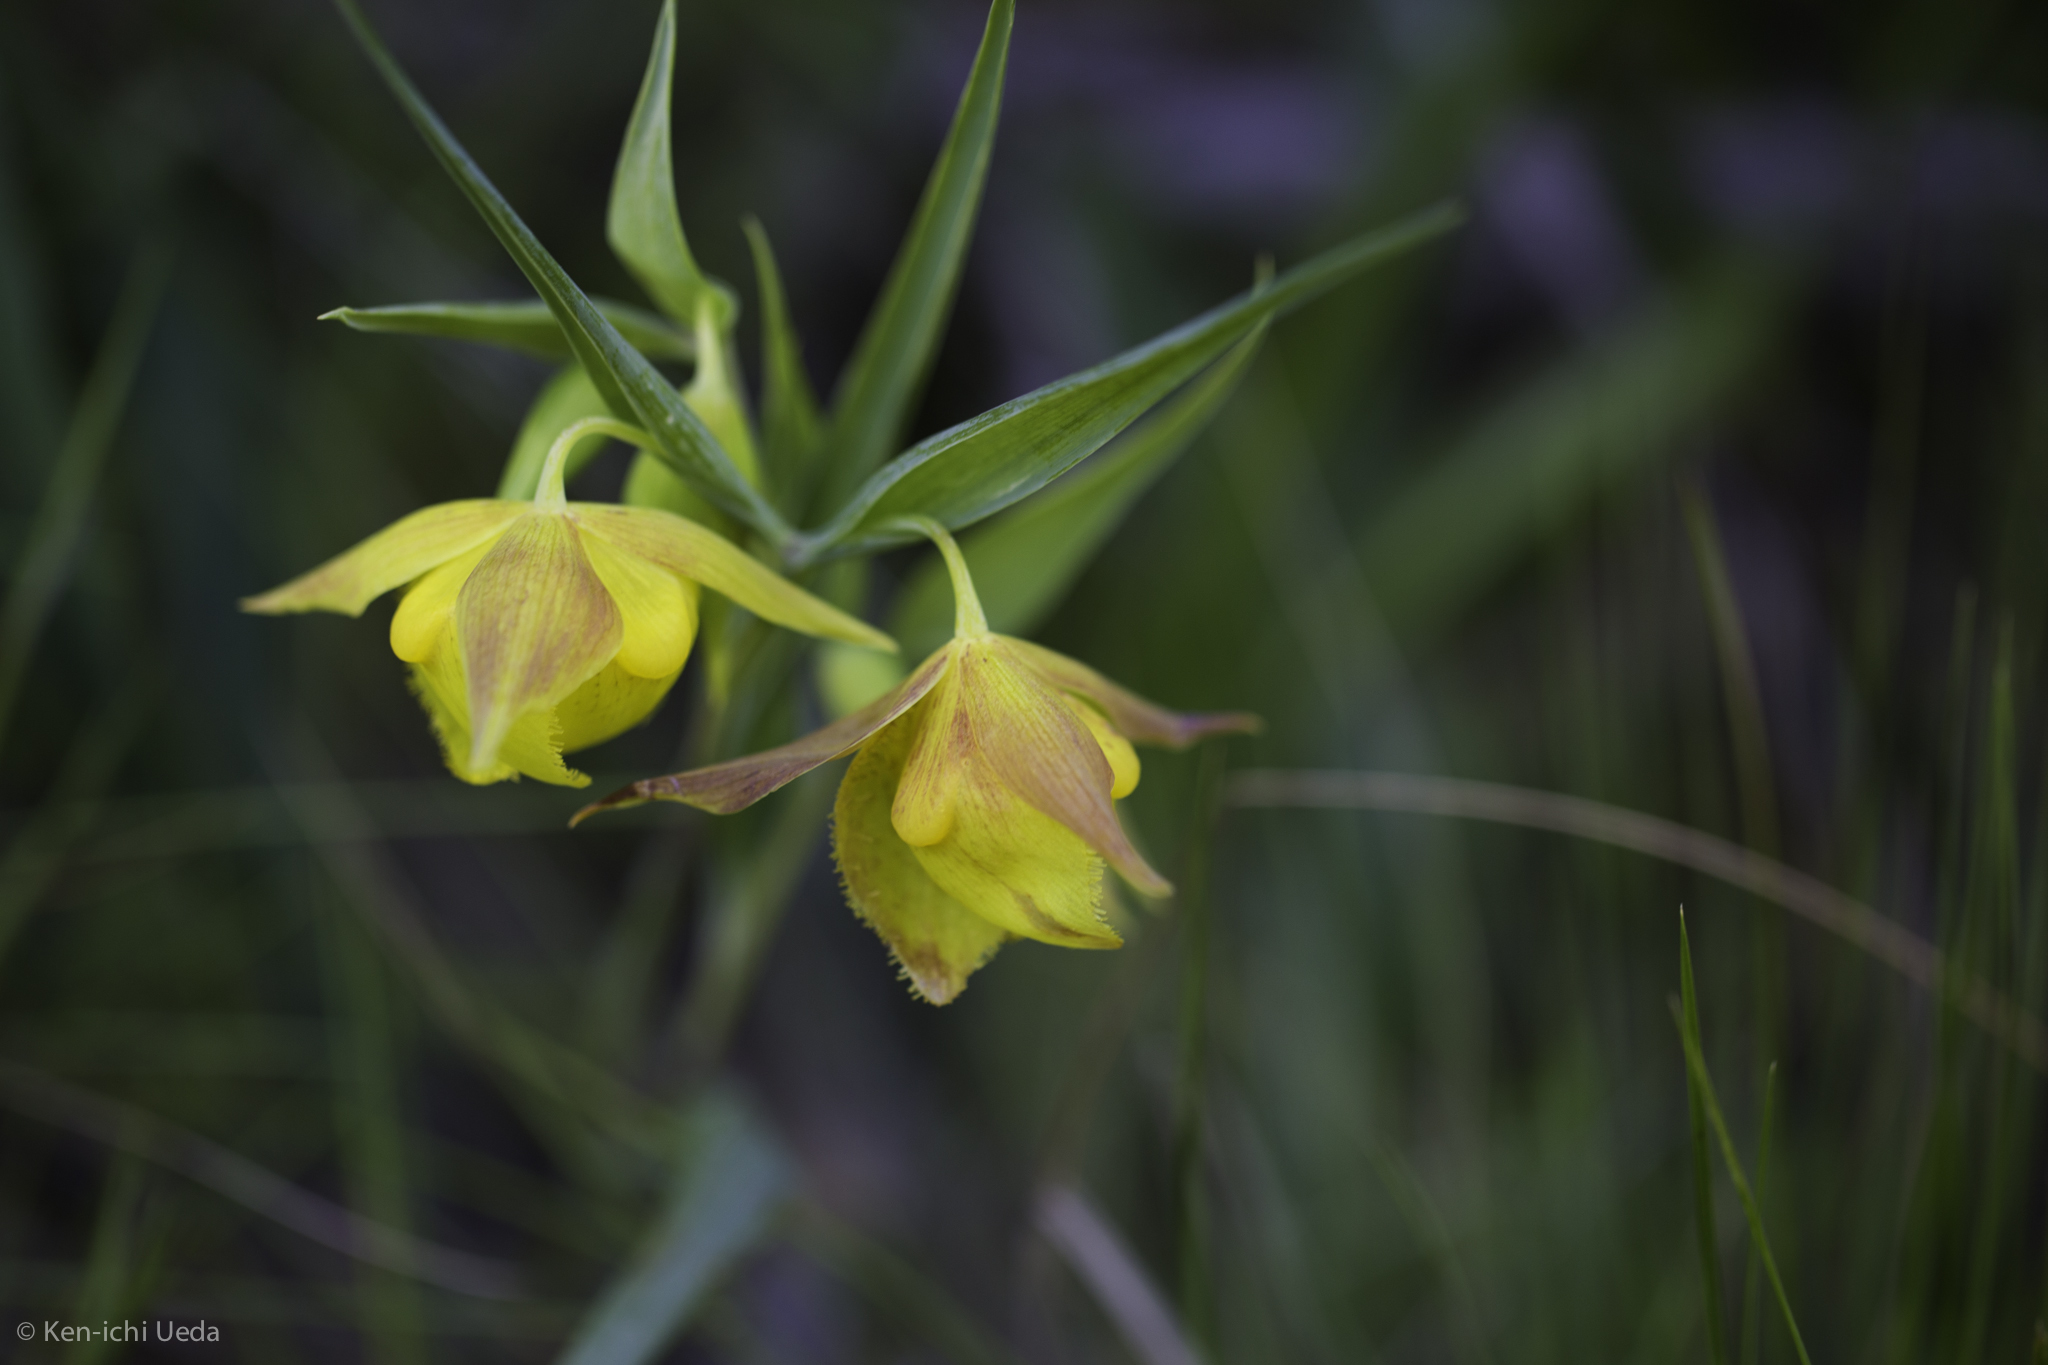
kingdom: Plantae
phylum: Tracheophyta
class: Liliopsida
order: Liliales
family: Liliaceae
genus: Calochortus
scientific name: Calochortus pulchellus
